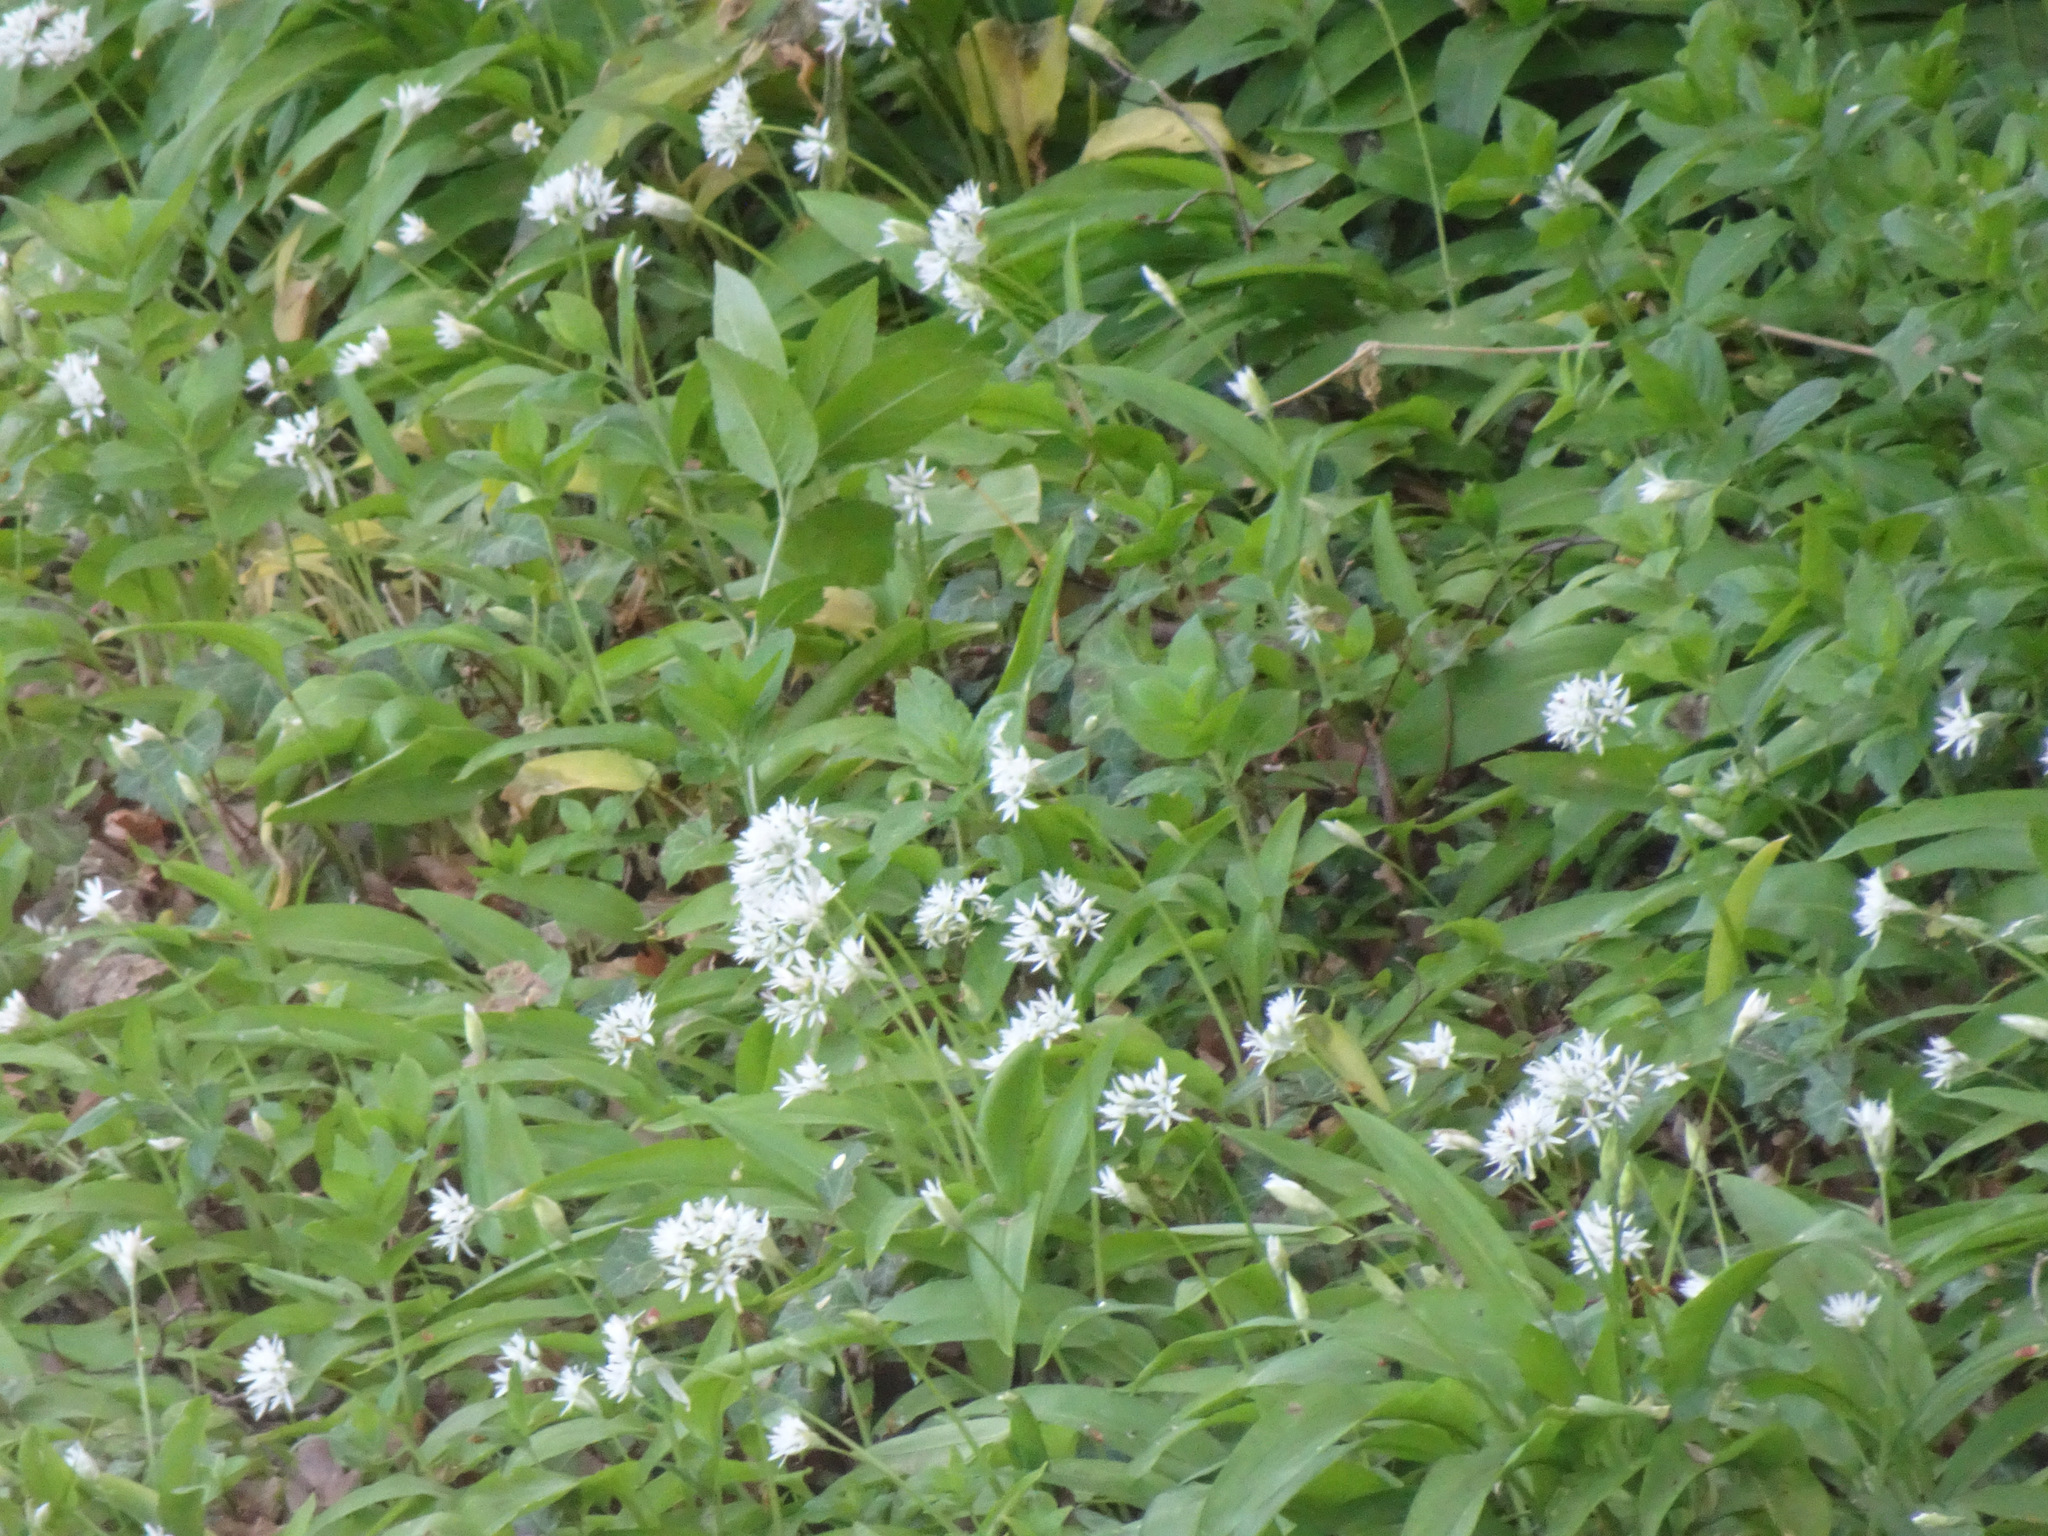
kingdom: Plantae
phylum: Tracheophyta
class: Liliopsida
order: Asparagales
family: Amaryllidaceae
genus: Allium
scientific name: Allium ursinum
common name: Ramsons
